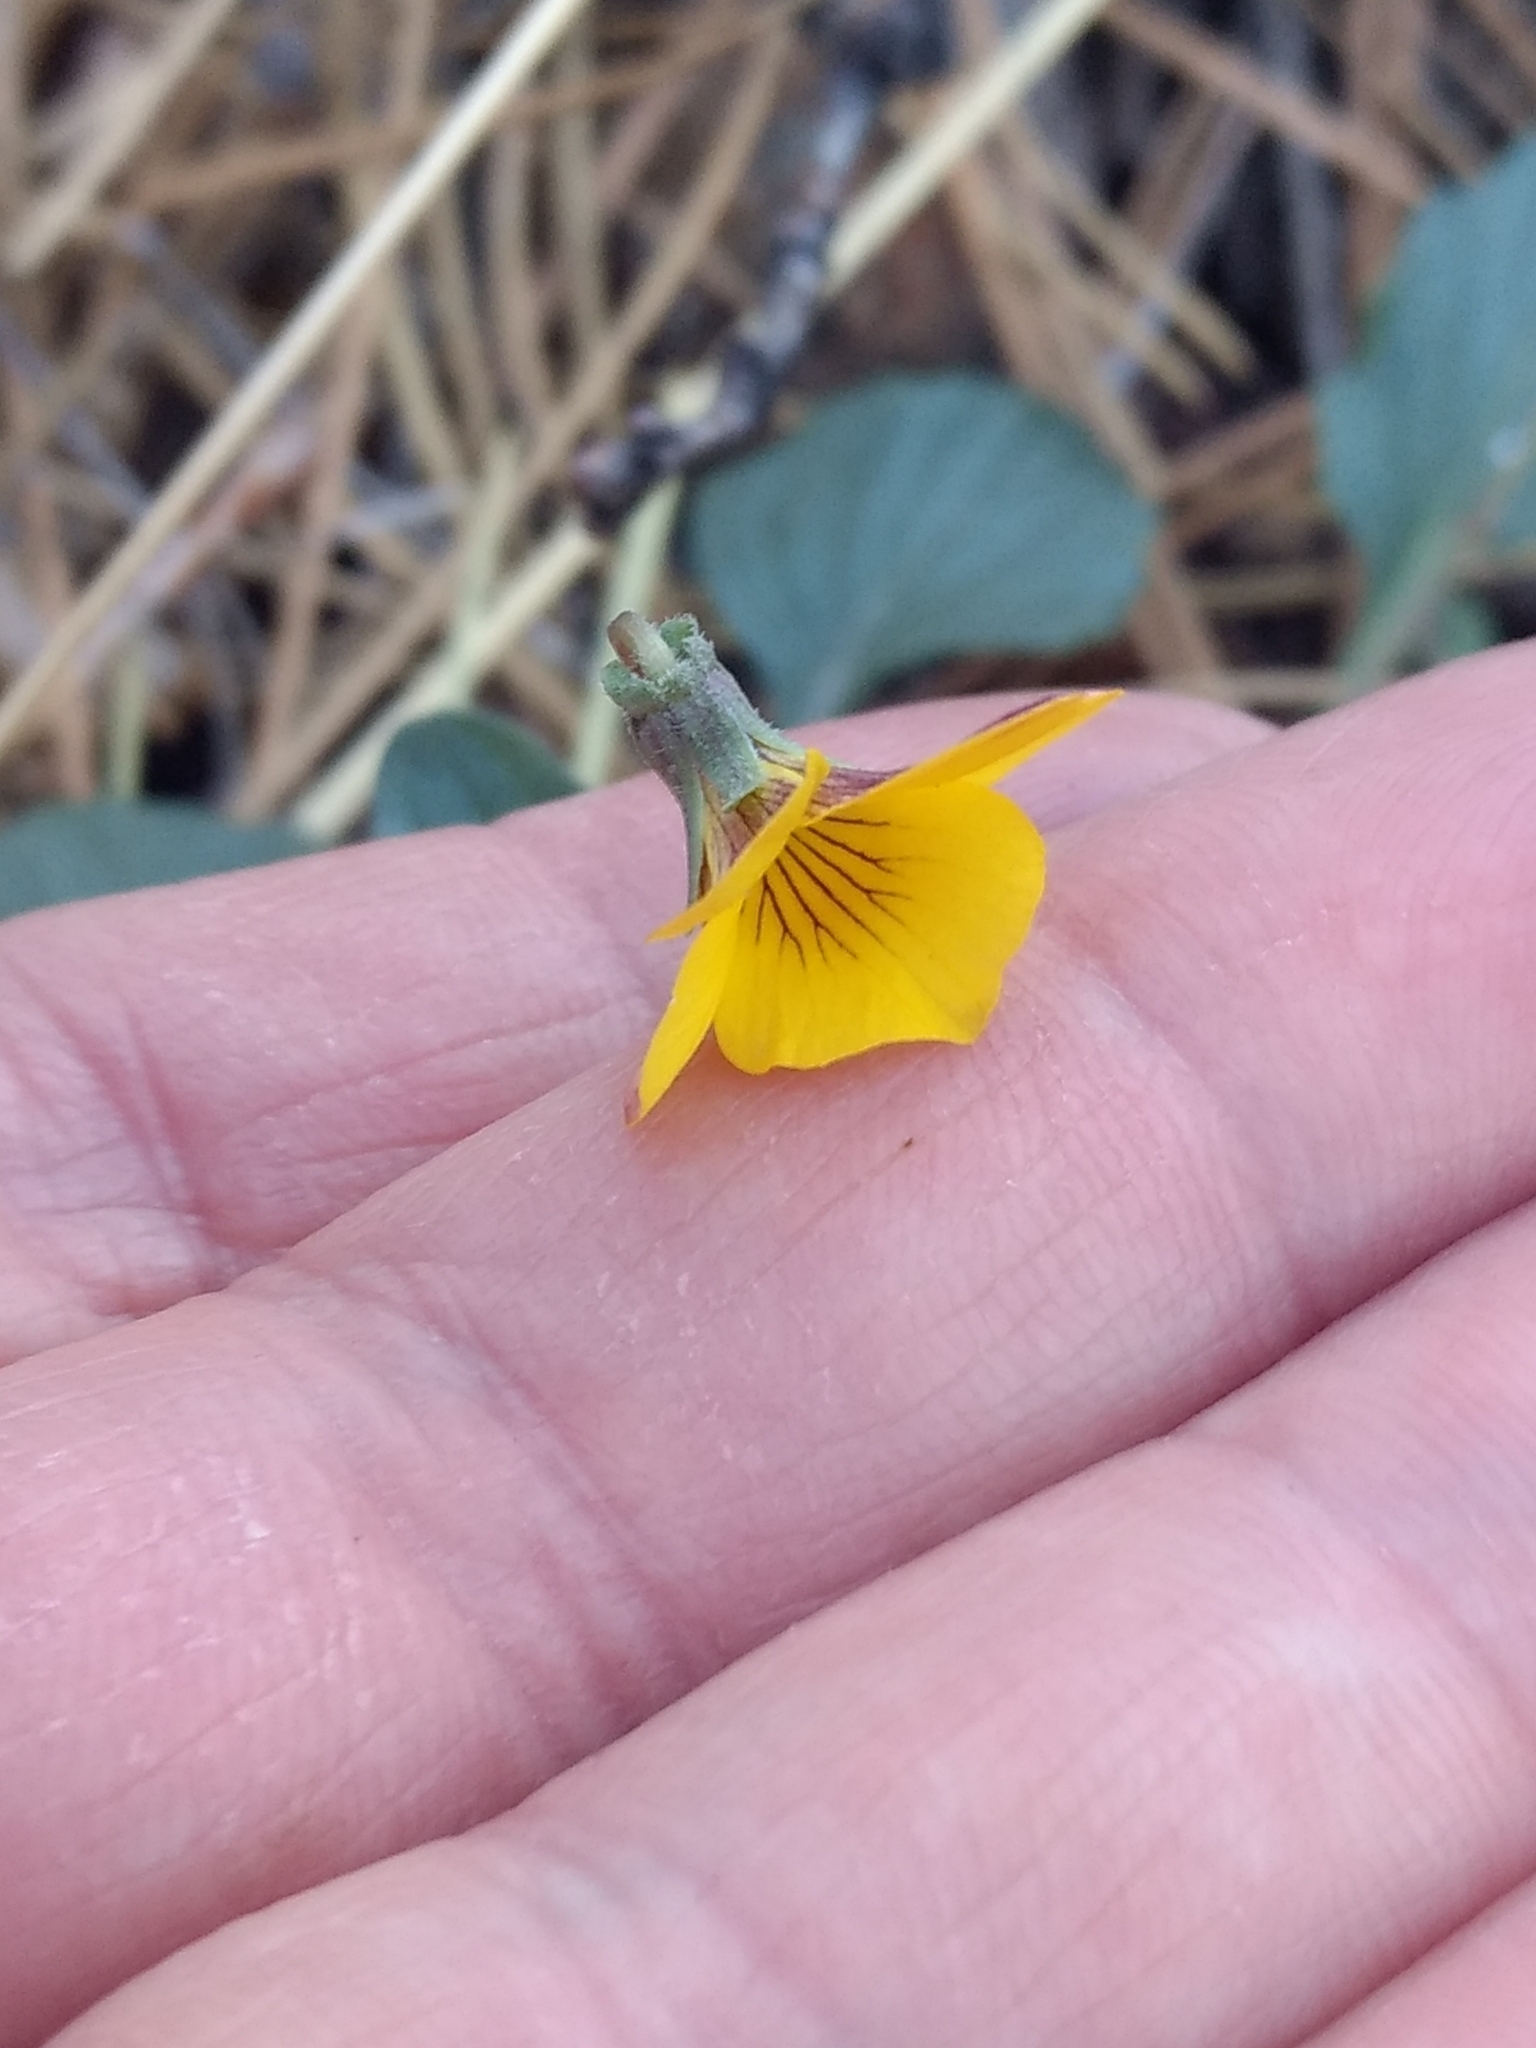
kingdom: Plantae
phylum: Tracheophyta
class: Magnoliopsida
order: Malpighiales
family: Violaceae
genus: Viola
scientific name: Viola purpurea
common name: Pine violet
